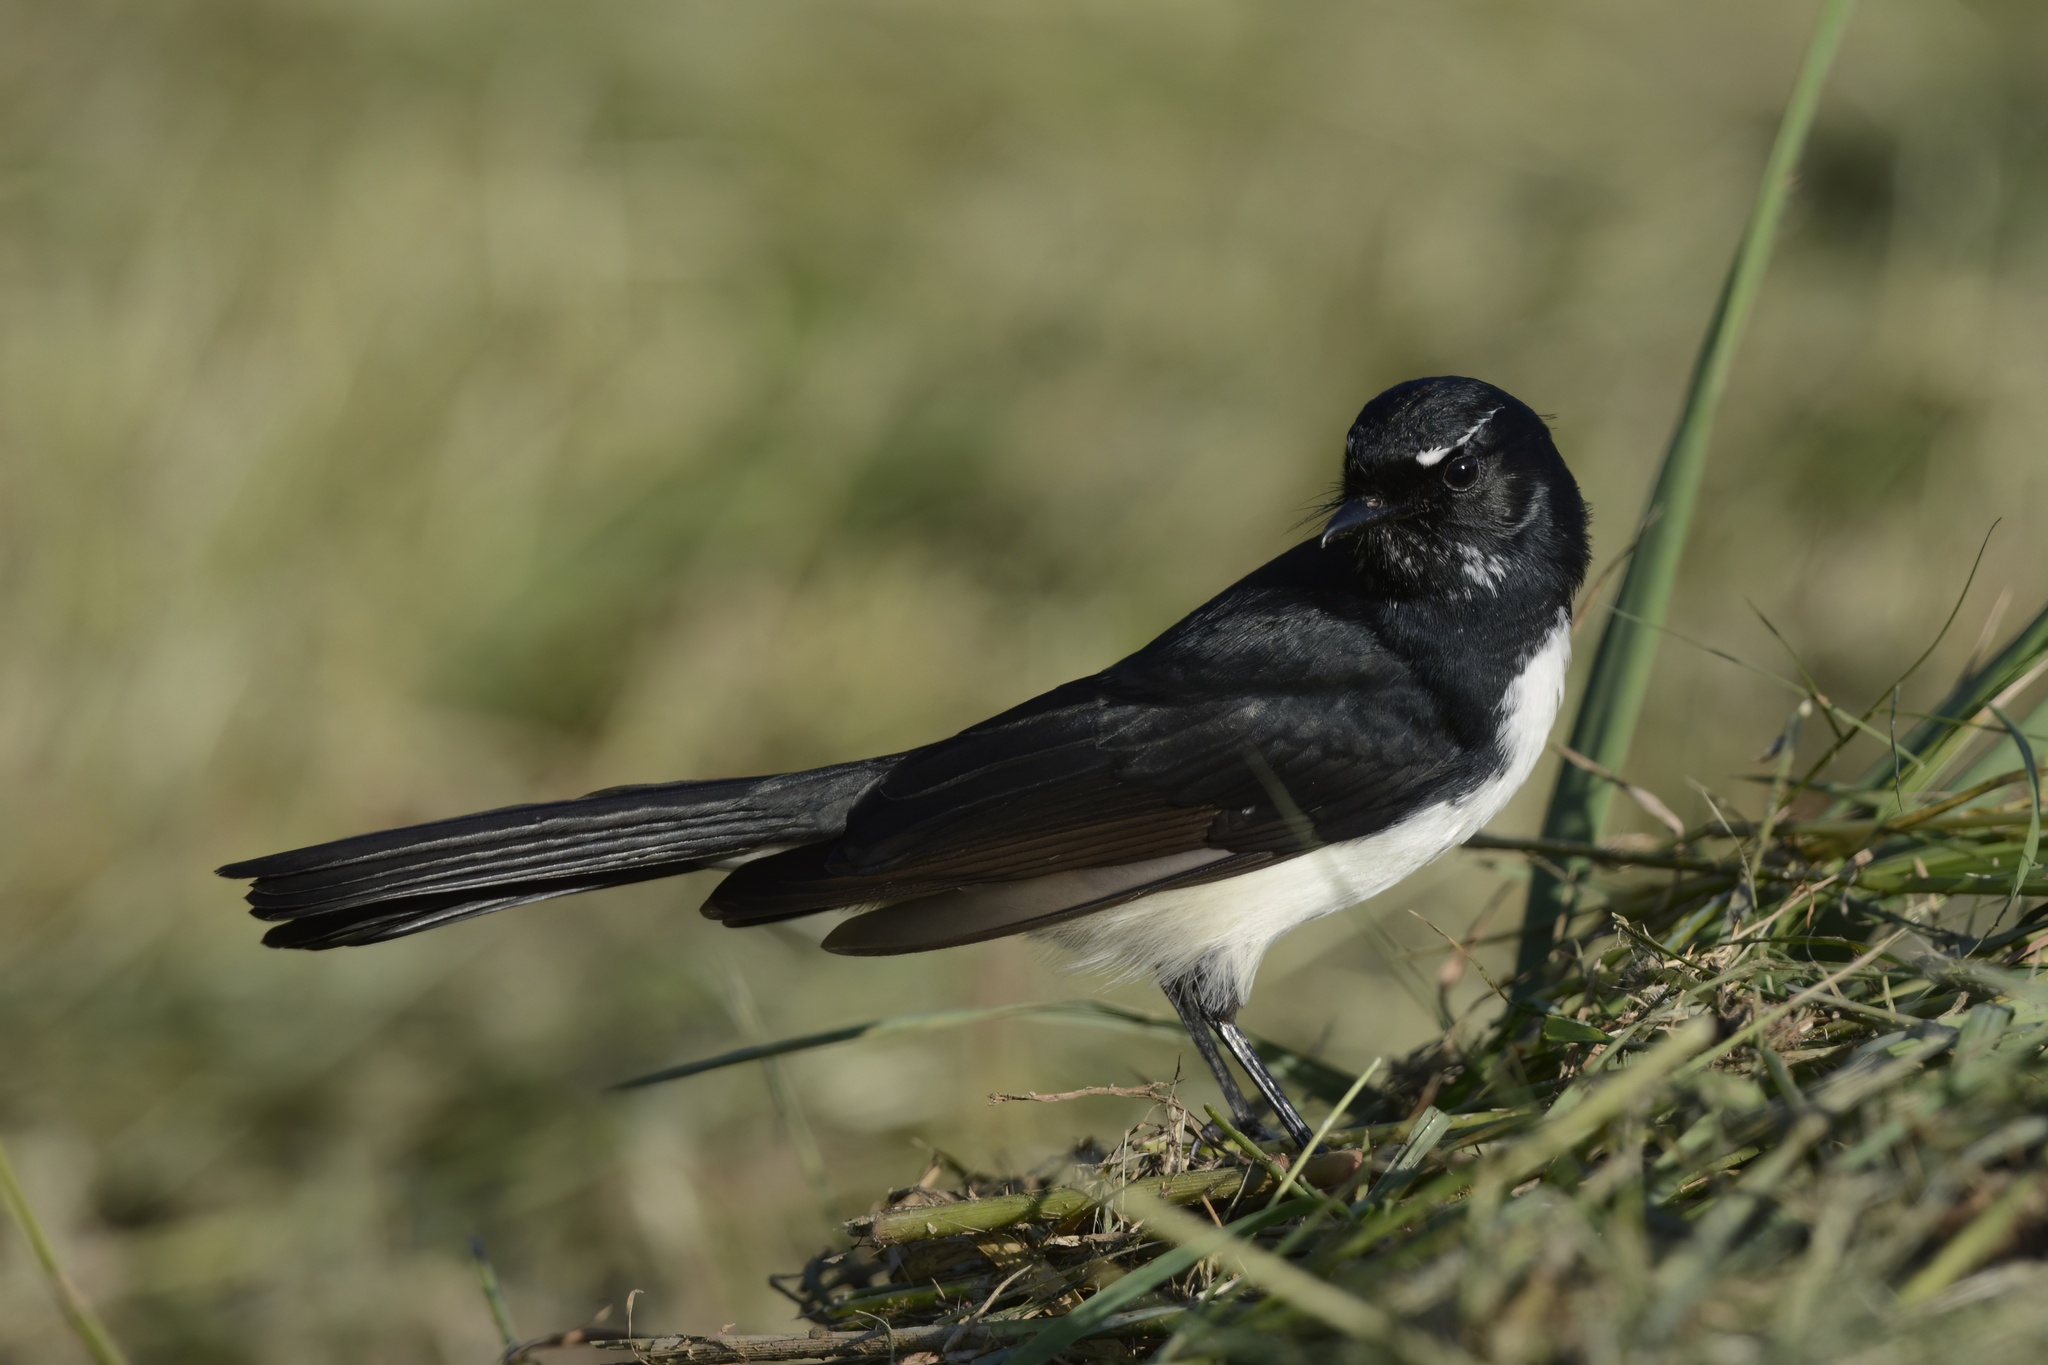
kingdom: Animalia
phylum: Chordata
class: Aves
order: Passeriformes
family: Rhipiduridae
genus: Rhipidura
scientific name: Rhipidura leucophrys
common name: Willie wagtail
